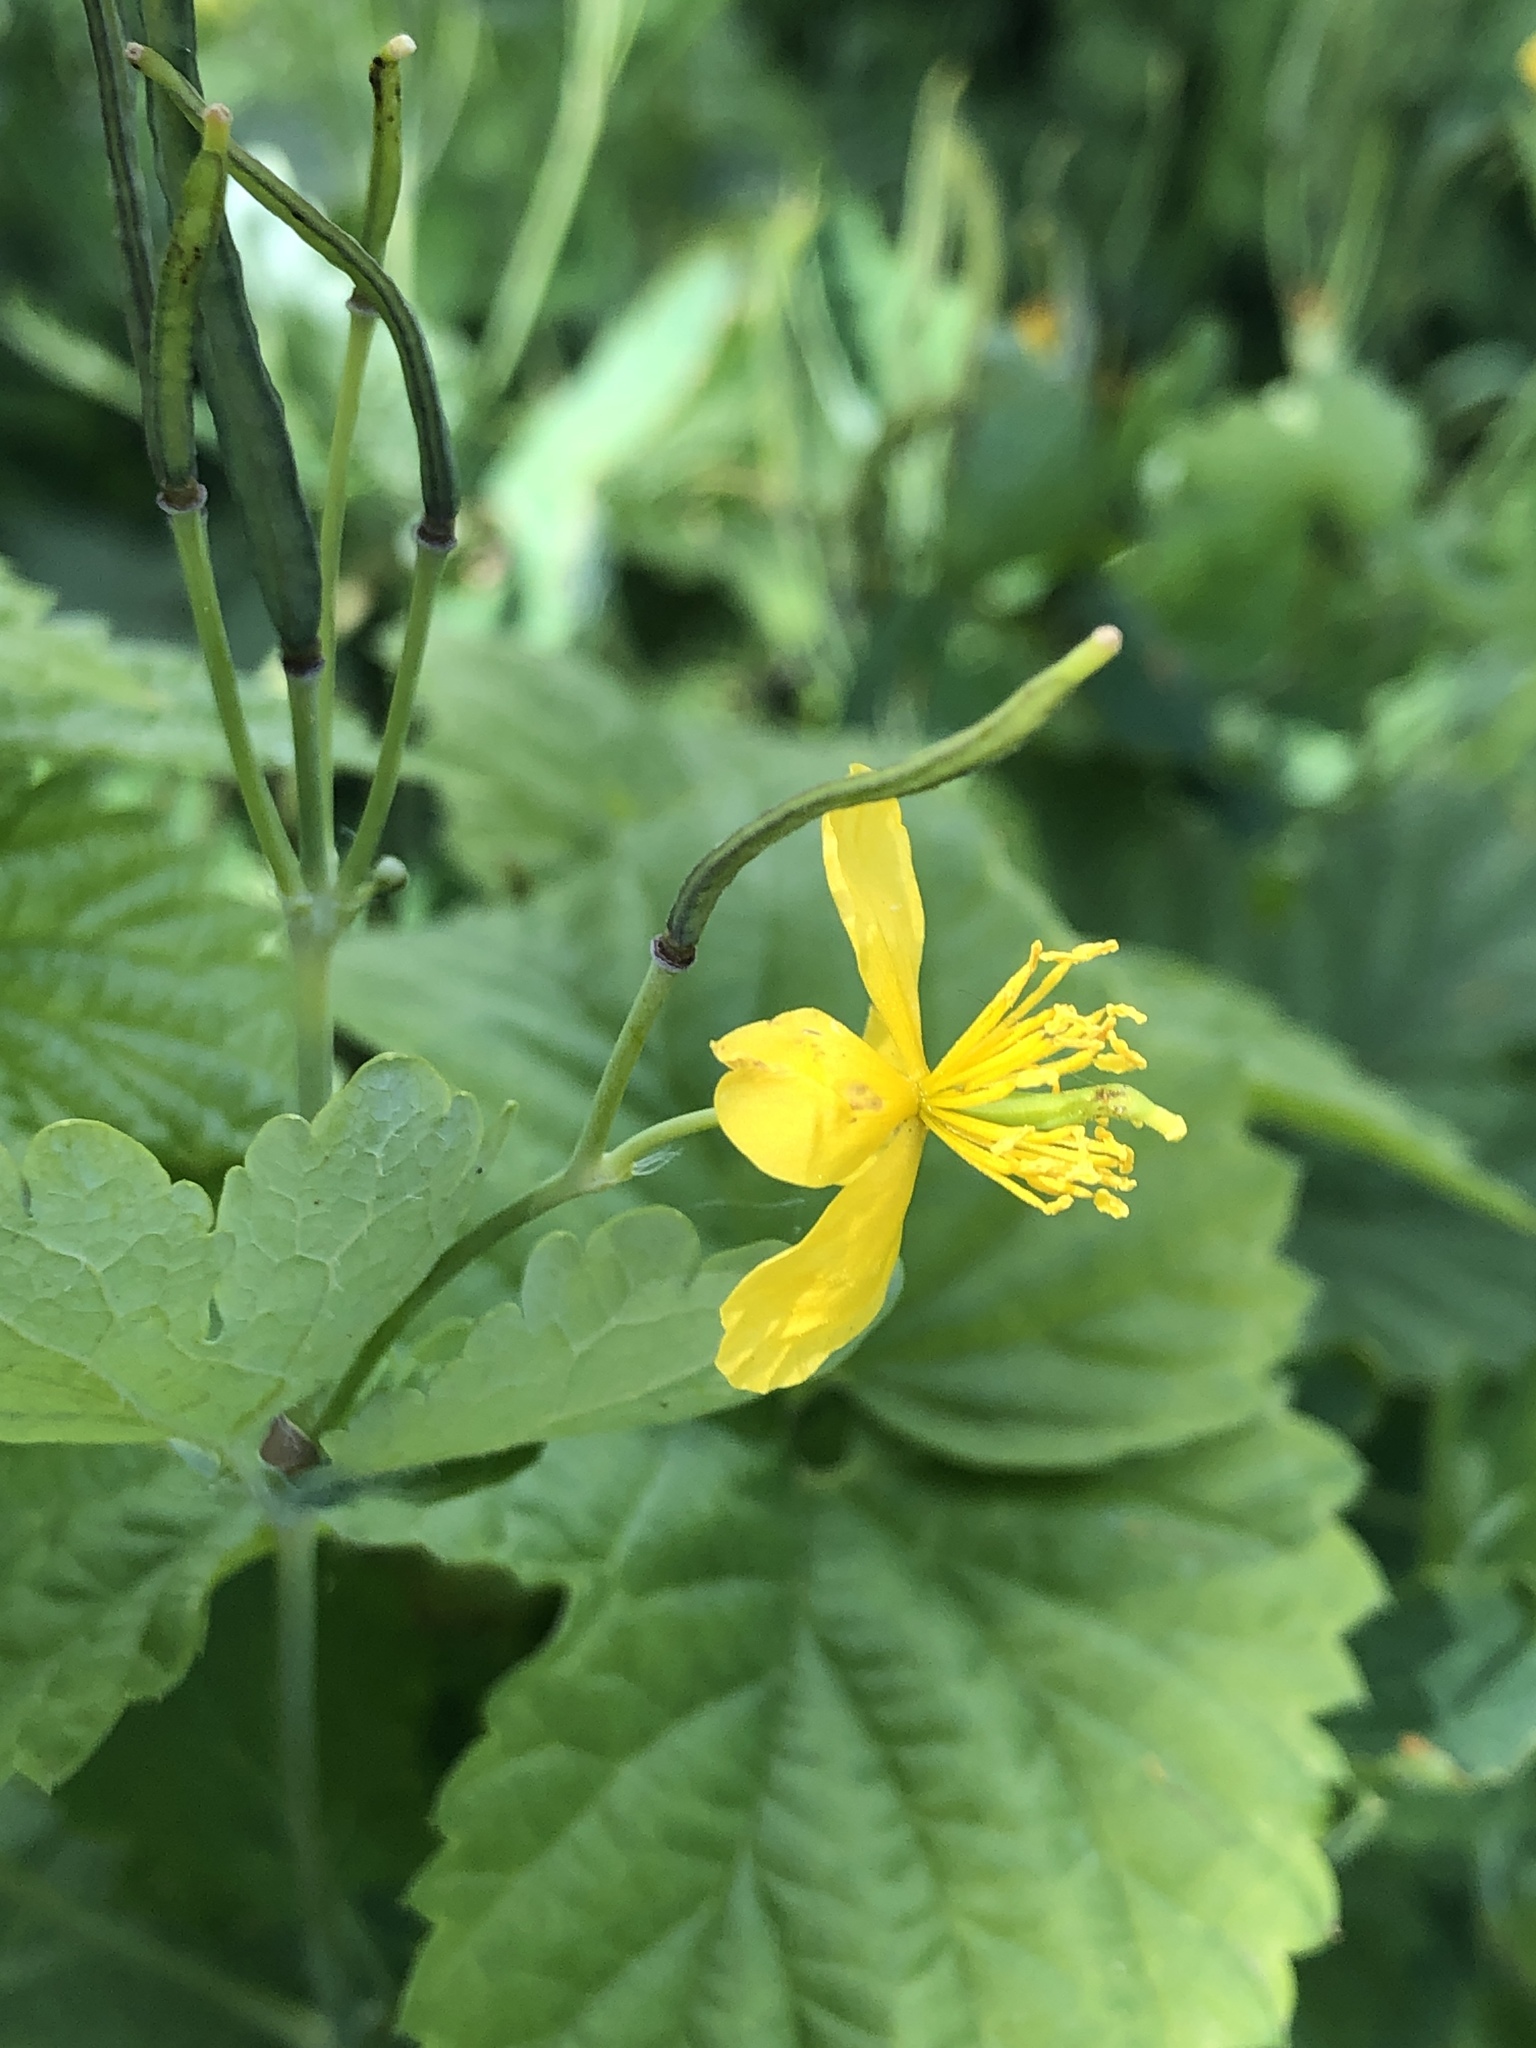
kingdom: Plantae
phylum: Tracheophyta
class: Magnoliopsida
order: Ranunculales
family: Papaveraceae
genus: Chelidonium
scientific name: Chelidonium majus
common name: Greater celandine
